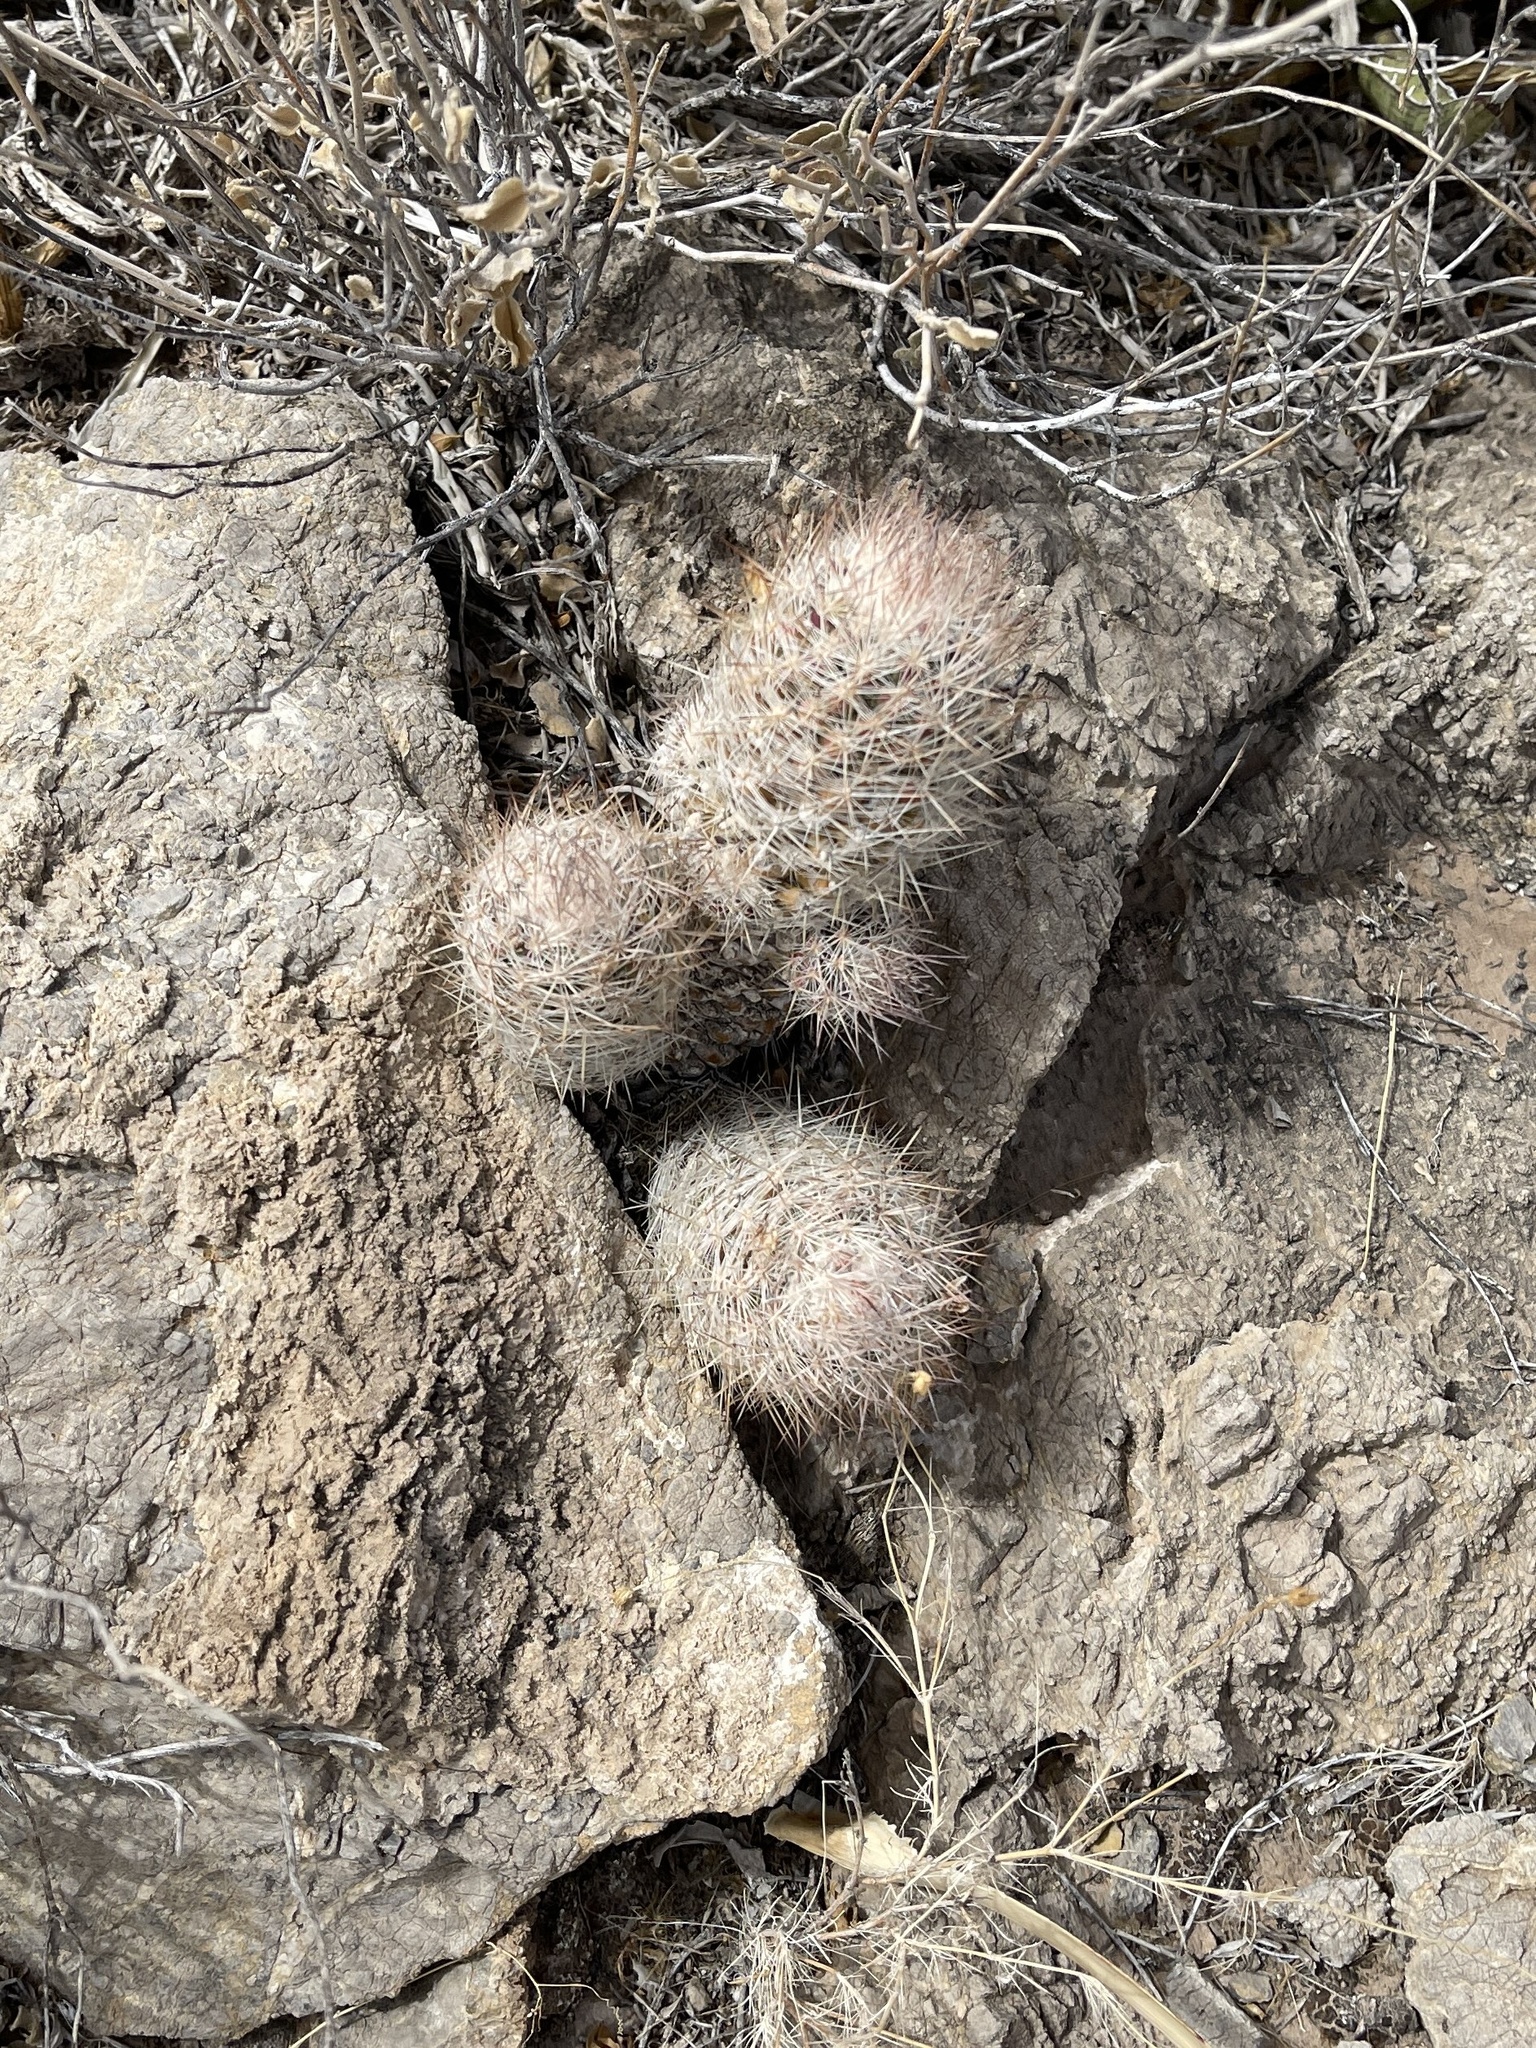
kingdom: Plantae
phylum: Tracheophyta
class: Magnoliopsida
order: Caryophyllales
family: Cactaceae
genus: Pelecyphora
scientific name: Pelecyphora tuberculosa
